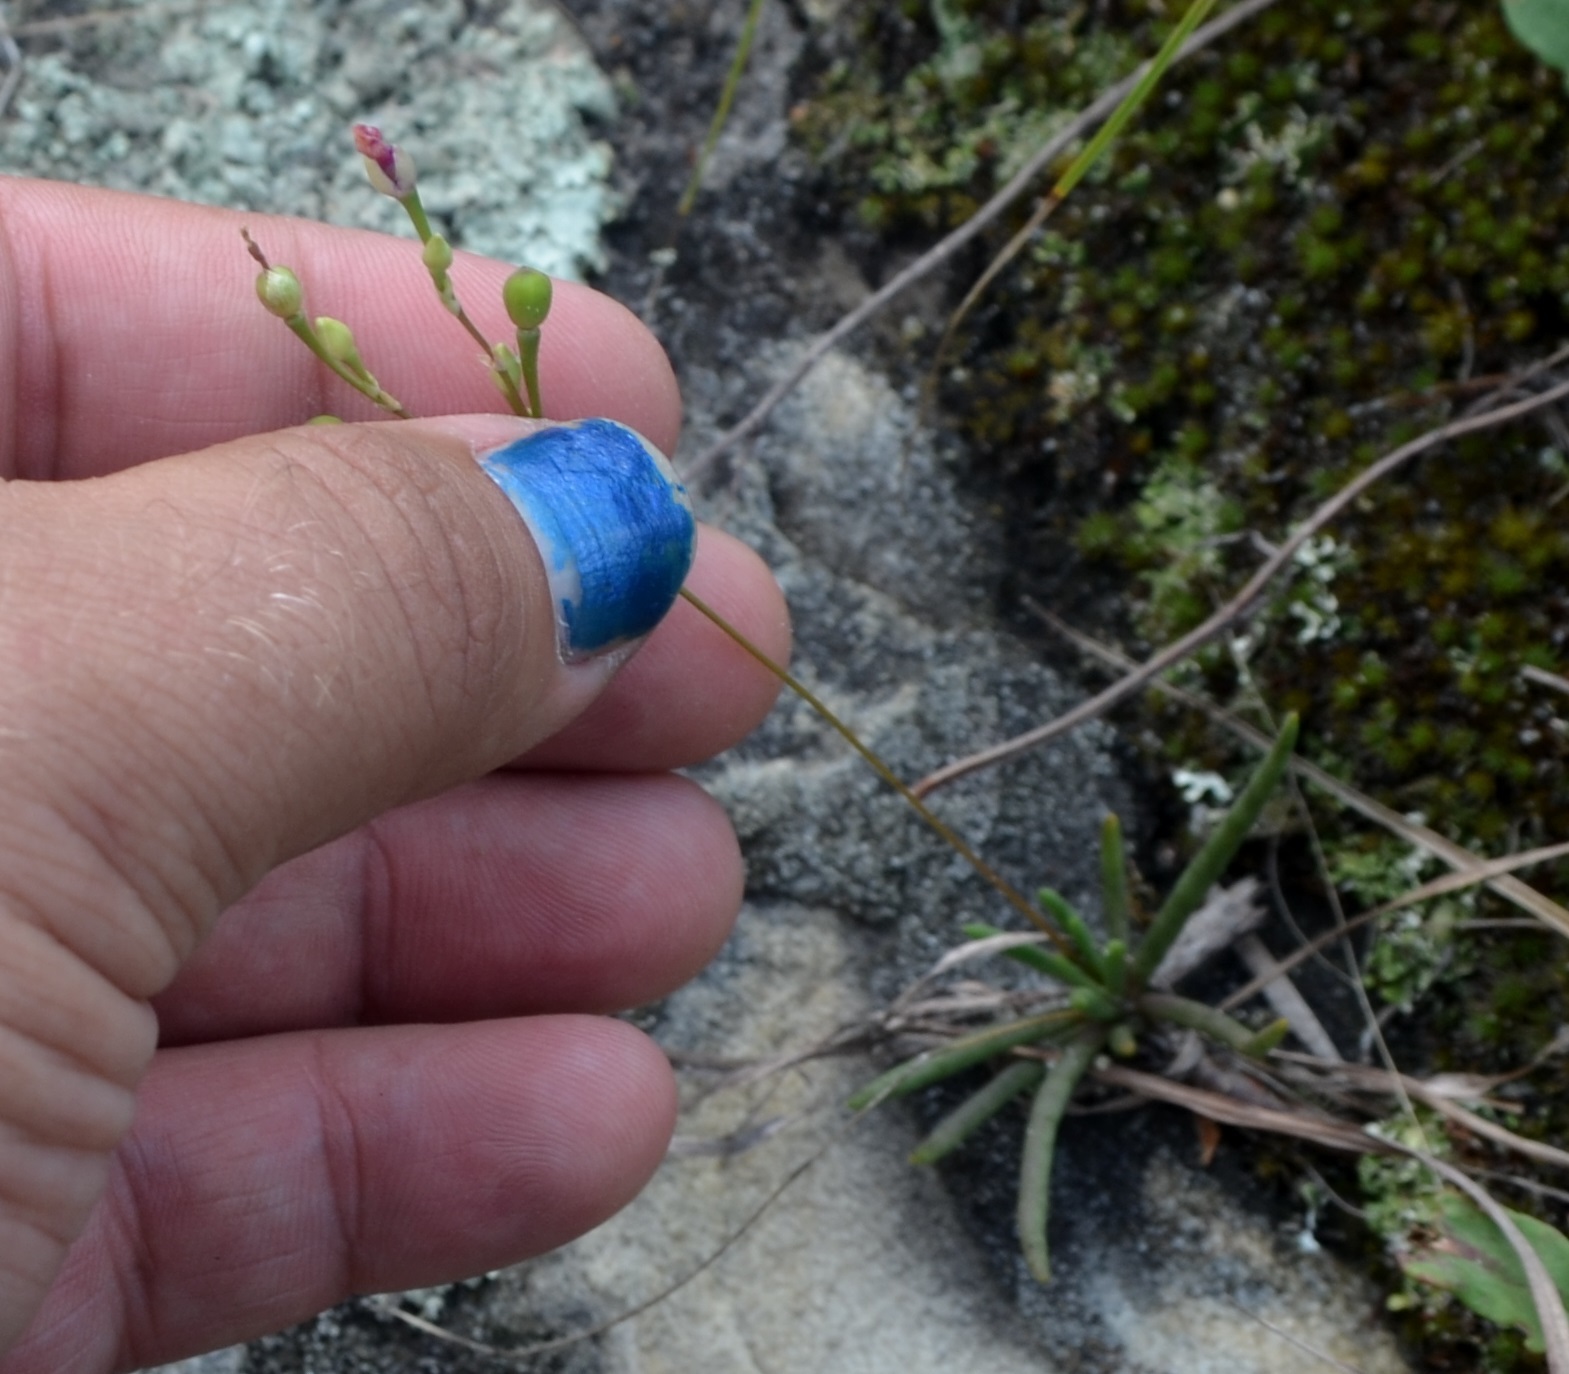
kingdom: Plantae
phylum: Tracheophyta
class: Magnoliopsida
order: Caryophyllales
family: Montiaceae
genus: Phemeranthus
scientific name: Phemeranthus rugospermus
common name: Prairie fameflower
